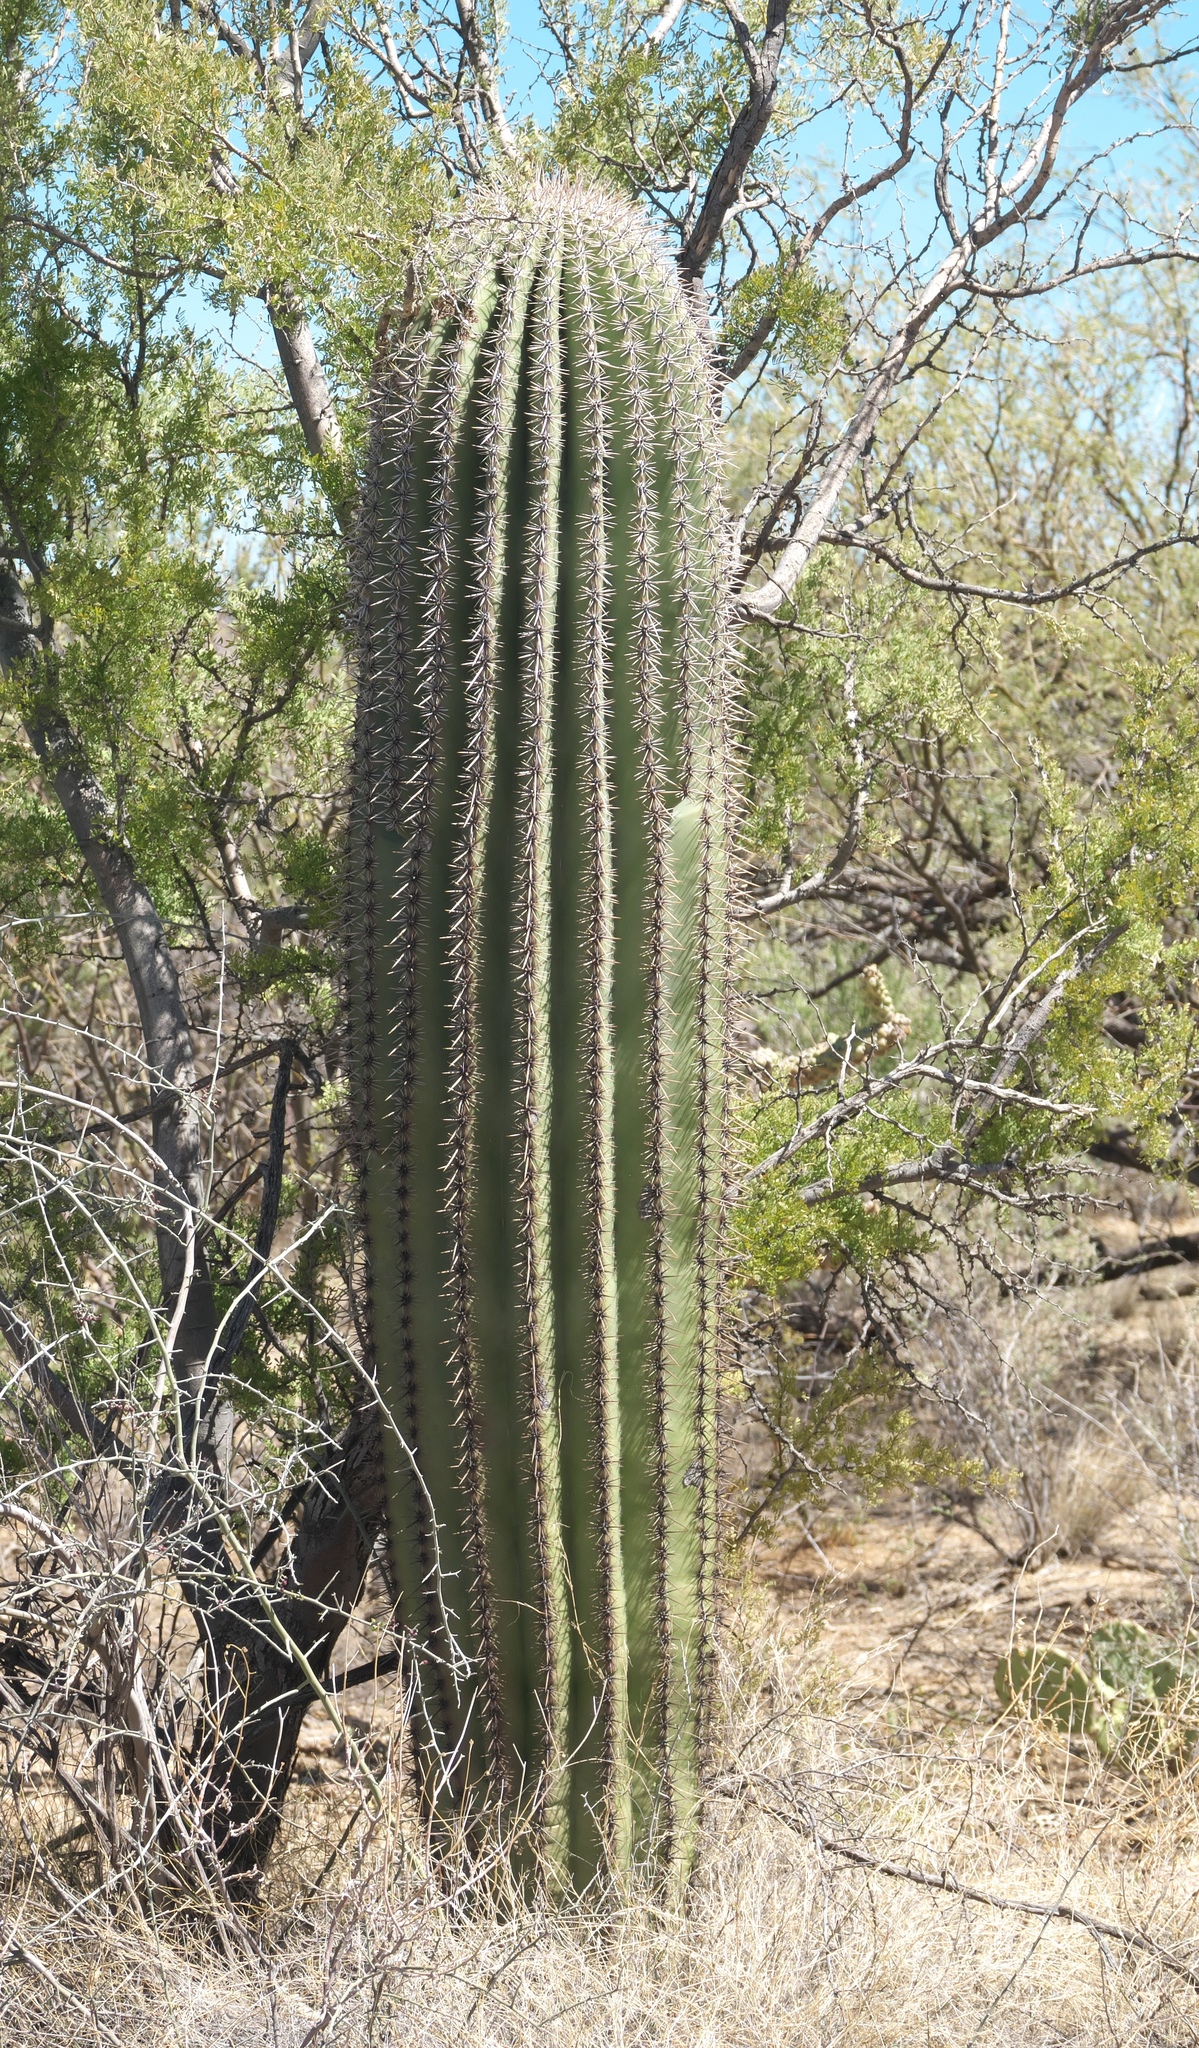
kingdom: Plantae
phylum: Tracheophyta
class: Magnoliopsida
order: Caryophyllales
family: Cactaceae
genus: Carnegiea
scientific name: Carnegiea gigantea
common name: Saguaro
